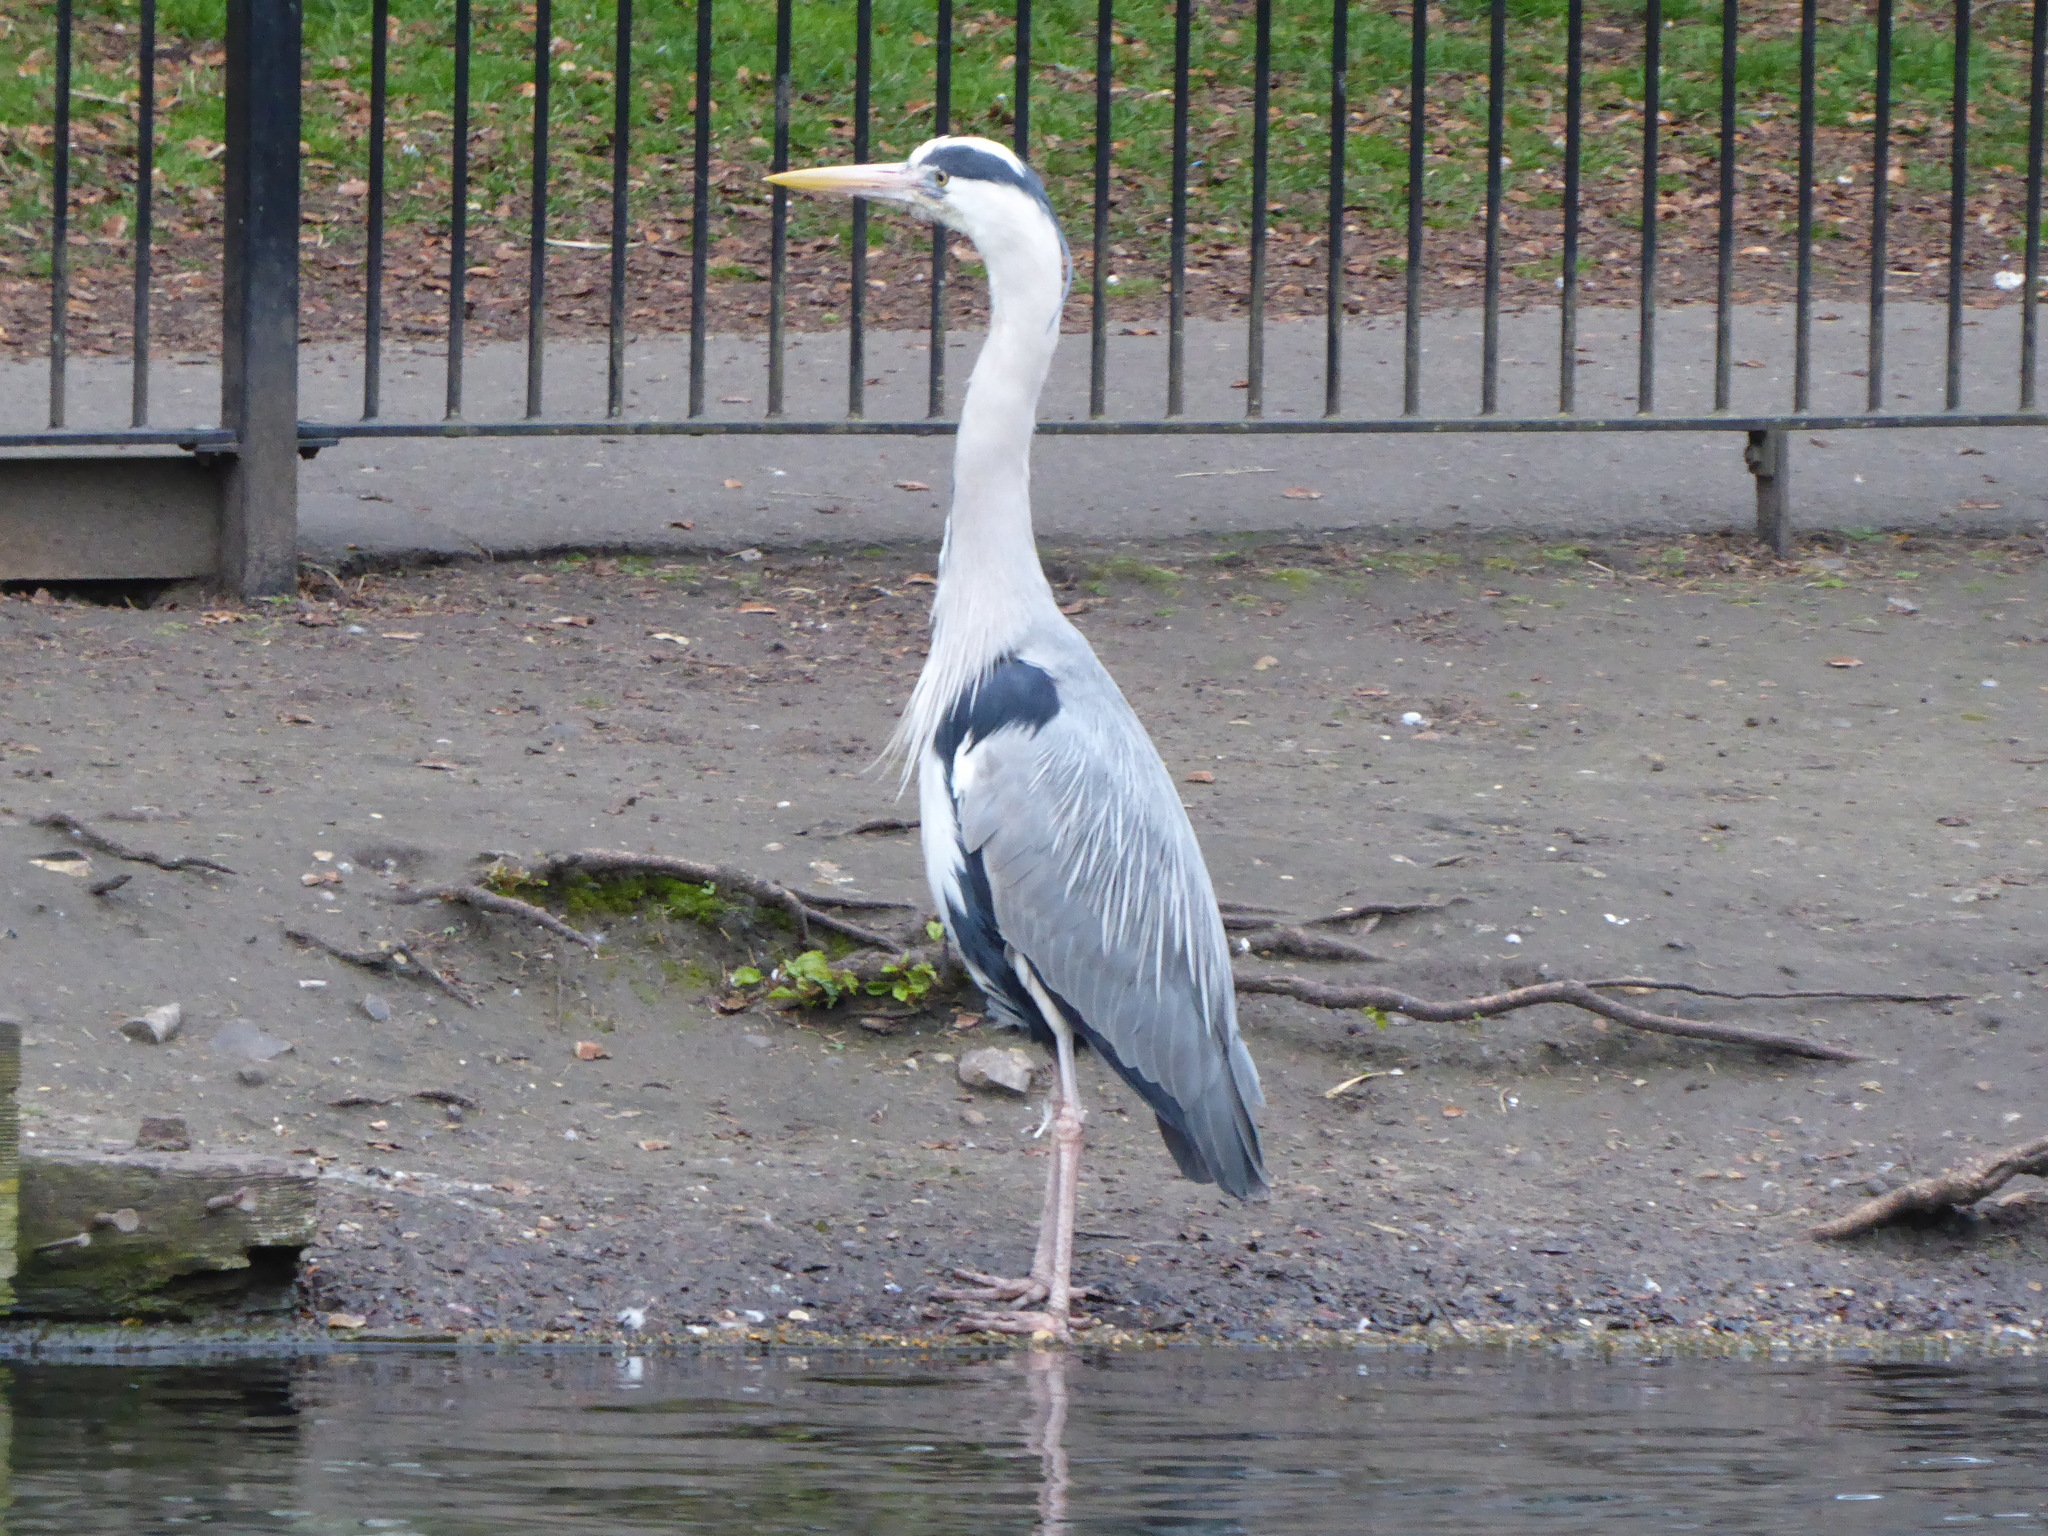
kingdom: Animalia
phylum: Chordata
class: Aves
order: Pelecaniformes
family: Ardeidae
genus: Ardea
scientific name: Ardea cinerea
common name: Grey heron
